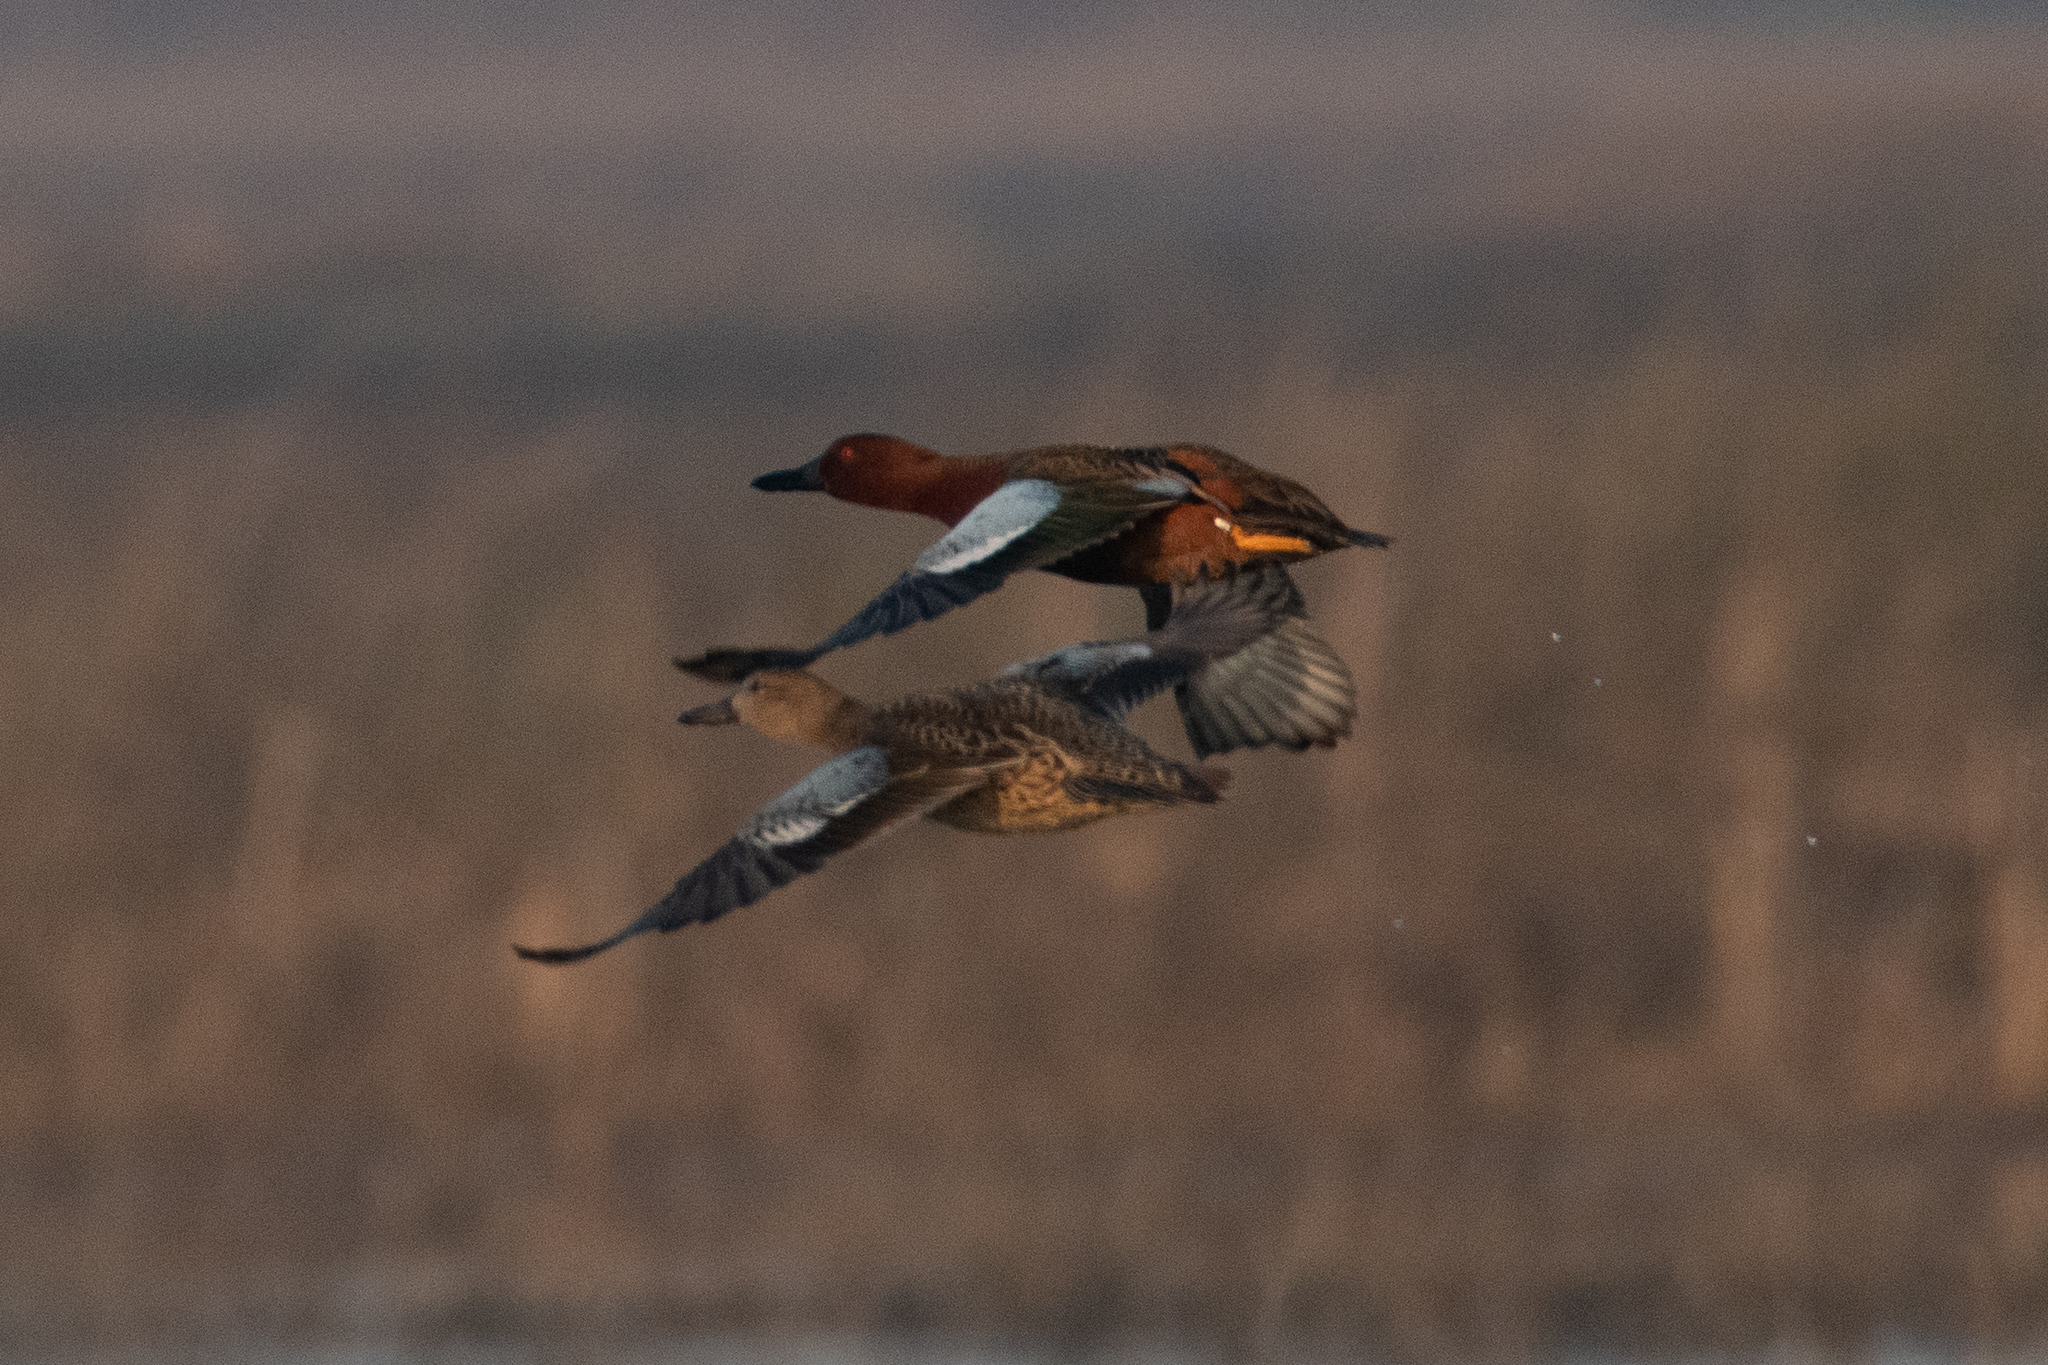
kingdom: Animalia
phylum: Chordata
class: Aves
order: Anseriformes
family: Anatidae
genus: Spatula
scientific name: Spatula cyanoptera
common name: Cinnamon teal
